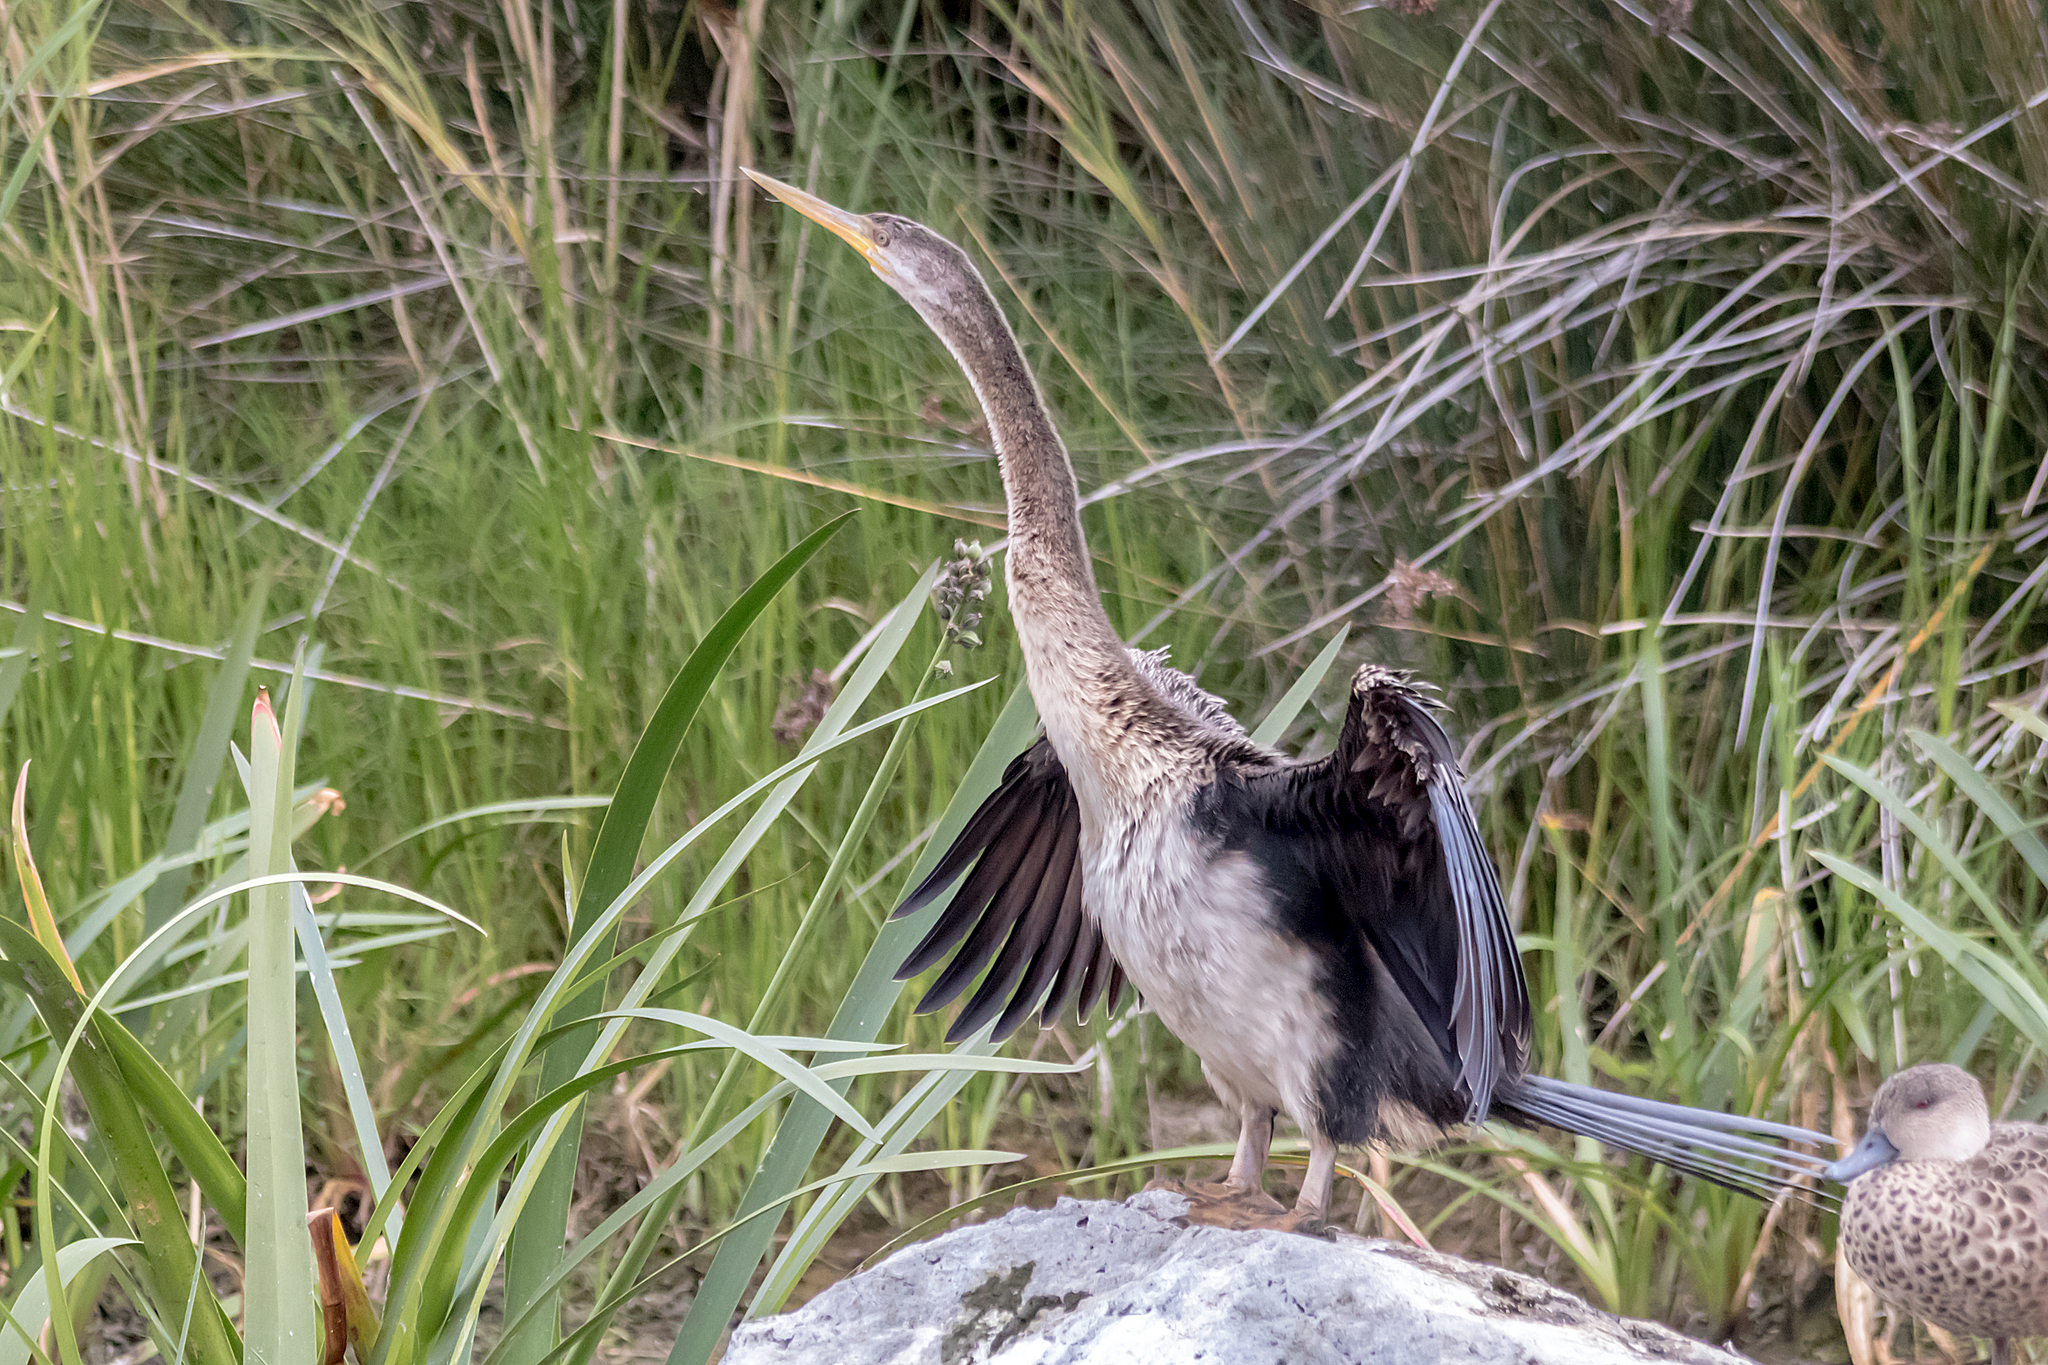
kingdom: Animalia
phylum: Chordata
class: Aves
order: Suliformes
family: Anhingidae
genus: Anhinga
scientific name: Anhinga novaehollandiae
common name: Australasian darter
